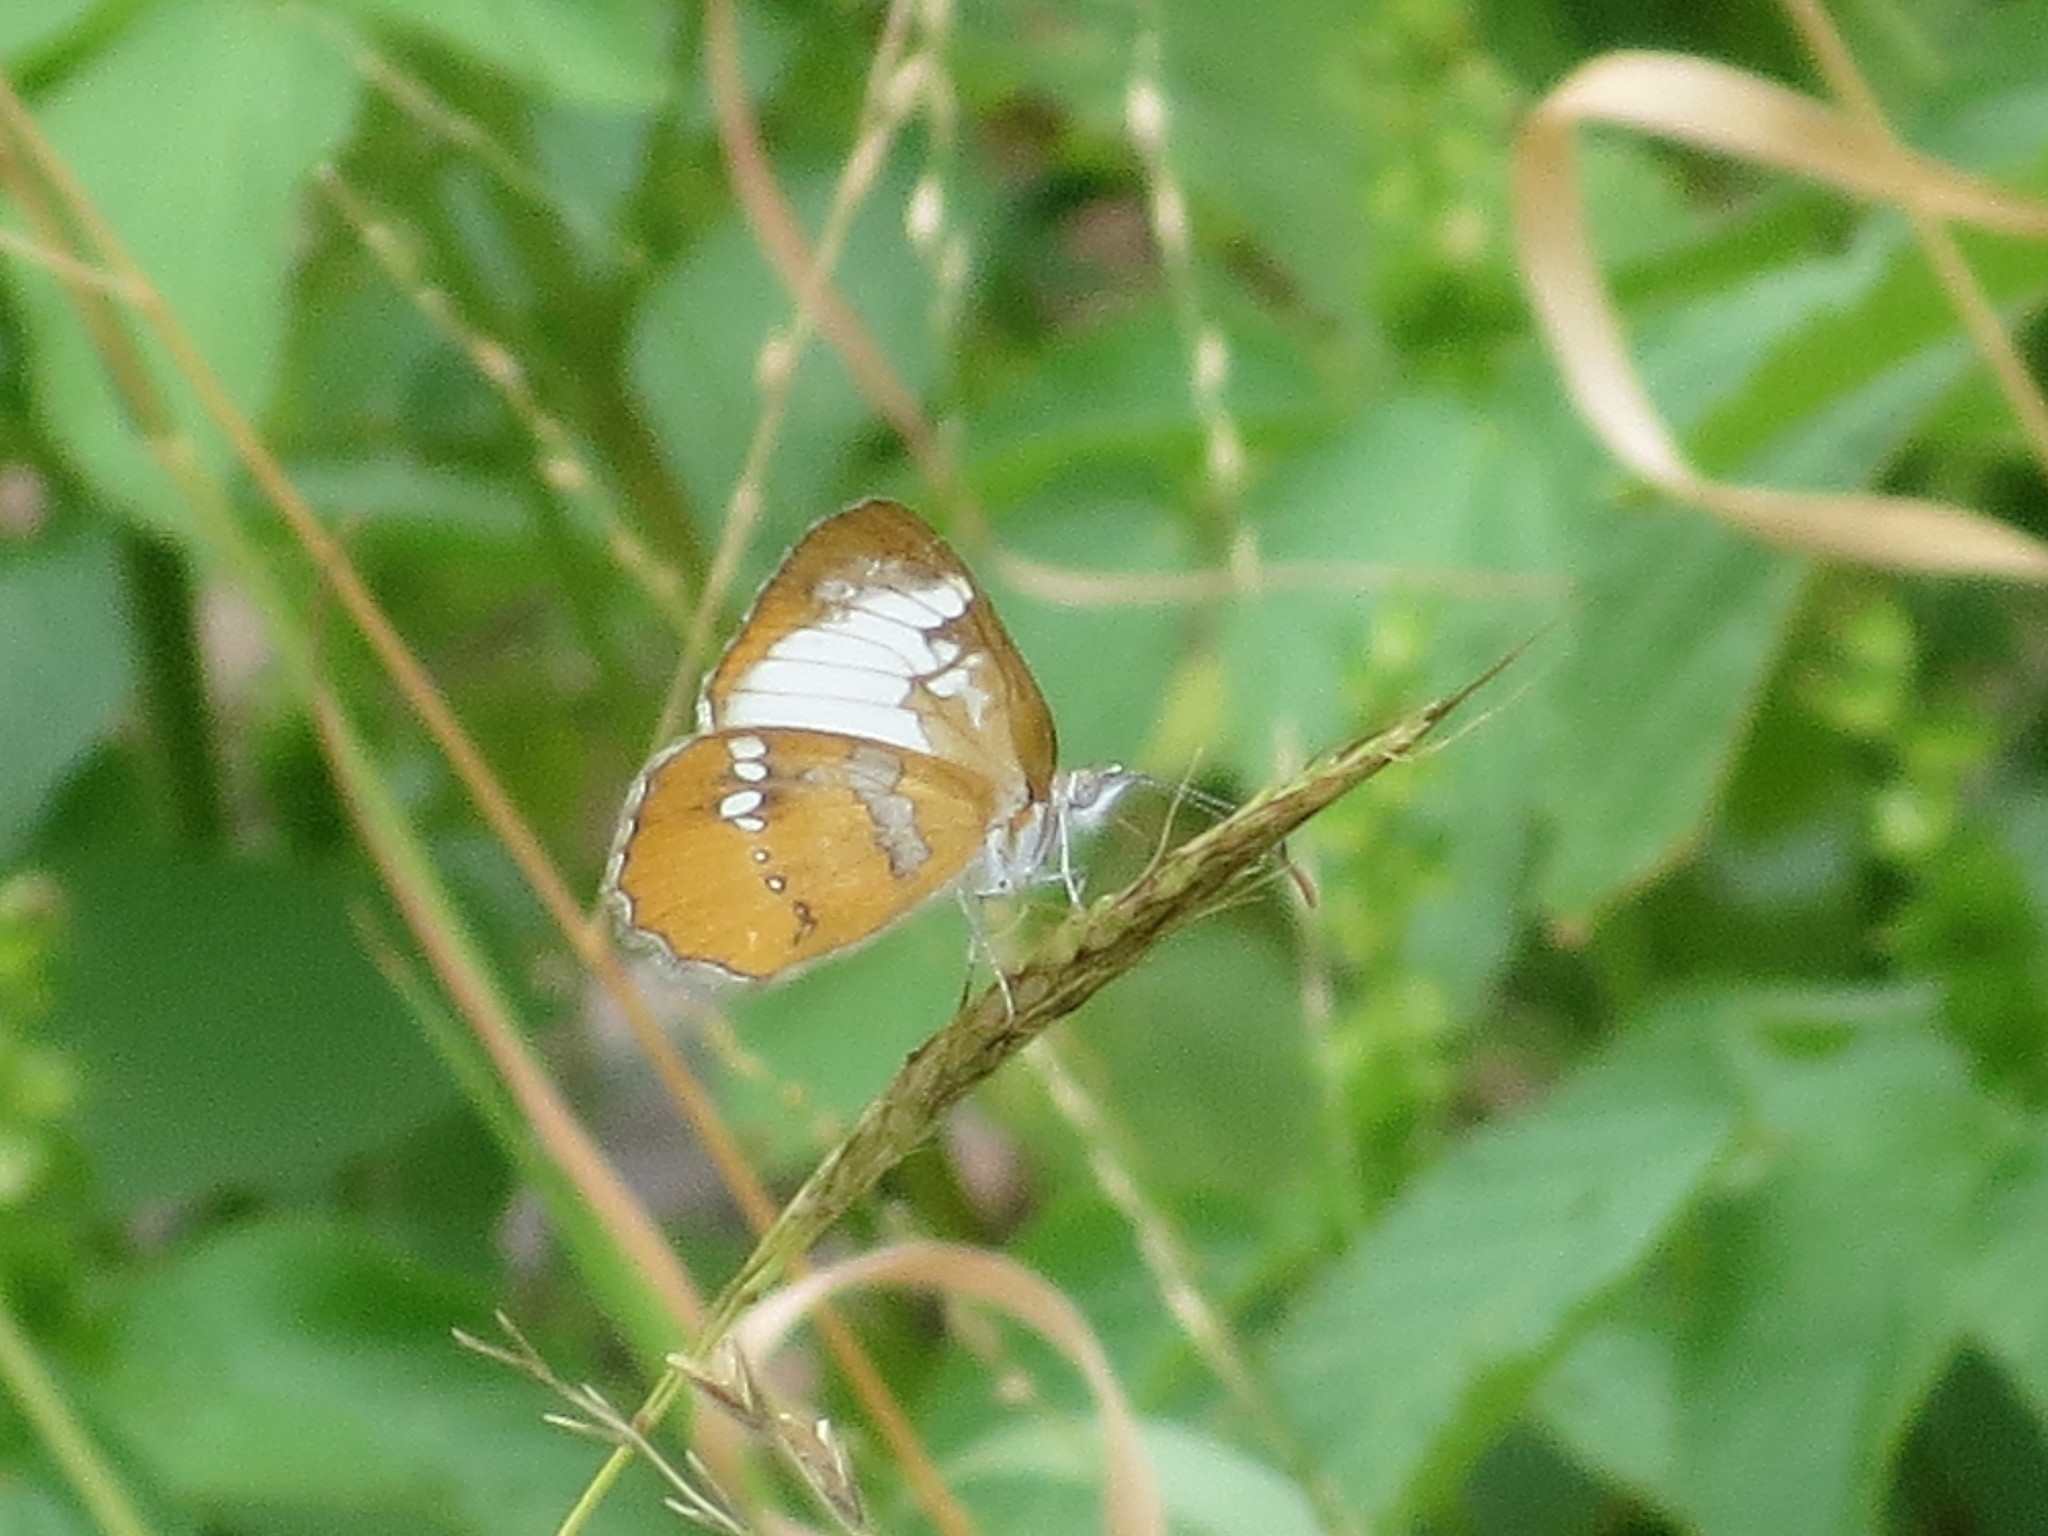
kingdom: Animalia
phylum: Arthropoda
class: Insecta
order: Lepidoptera
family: Nymphalidae
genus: Mestra
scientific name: Mestra amymone
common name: Common mestra
